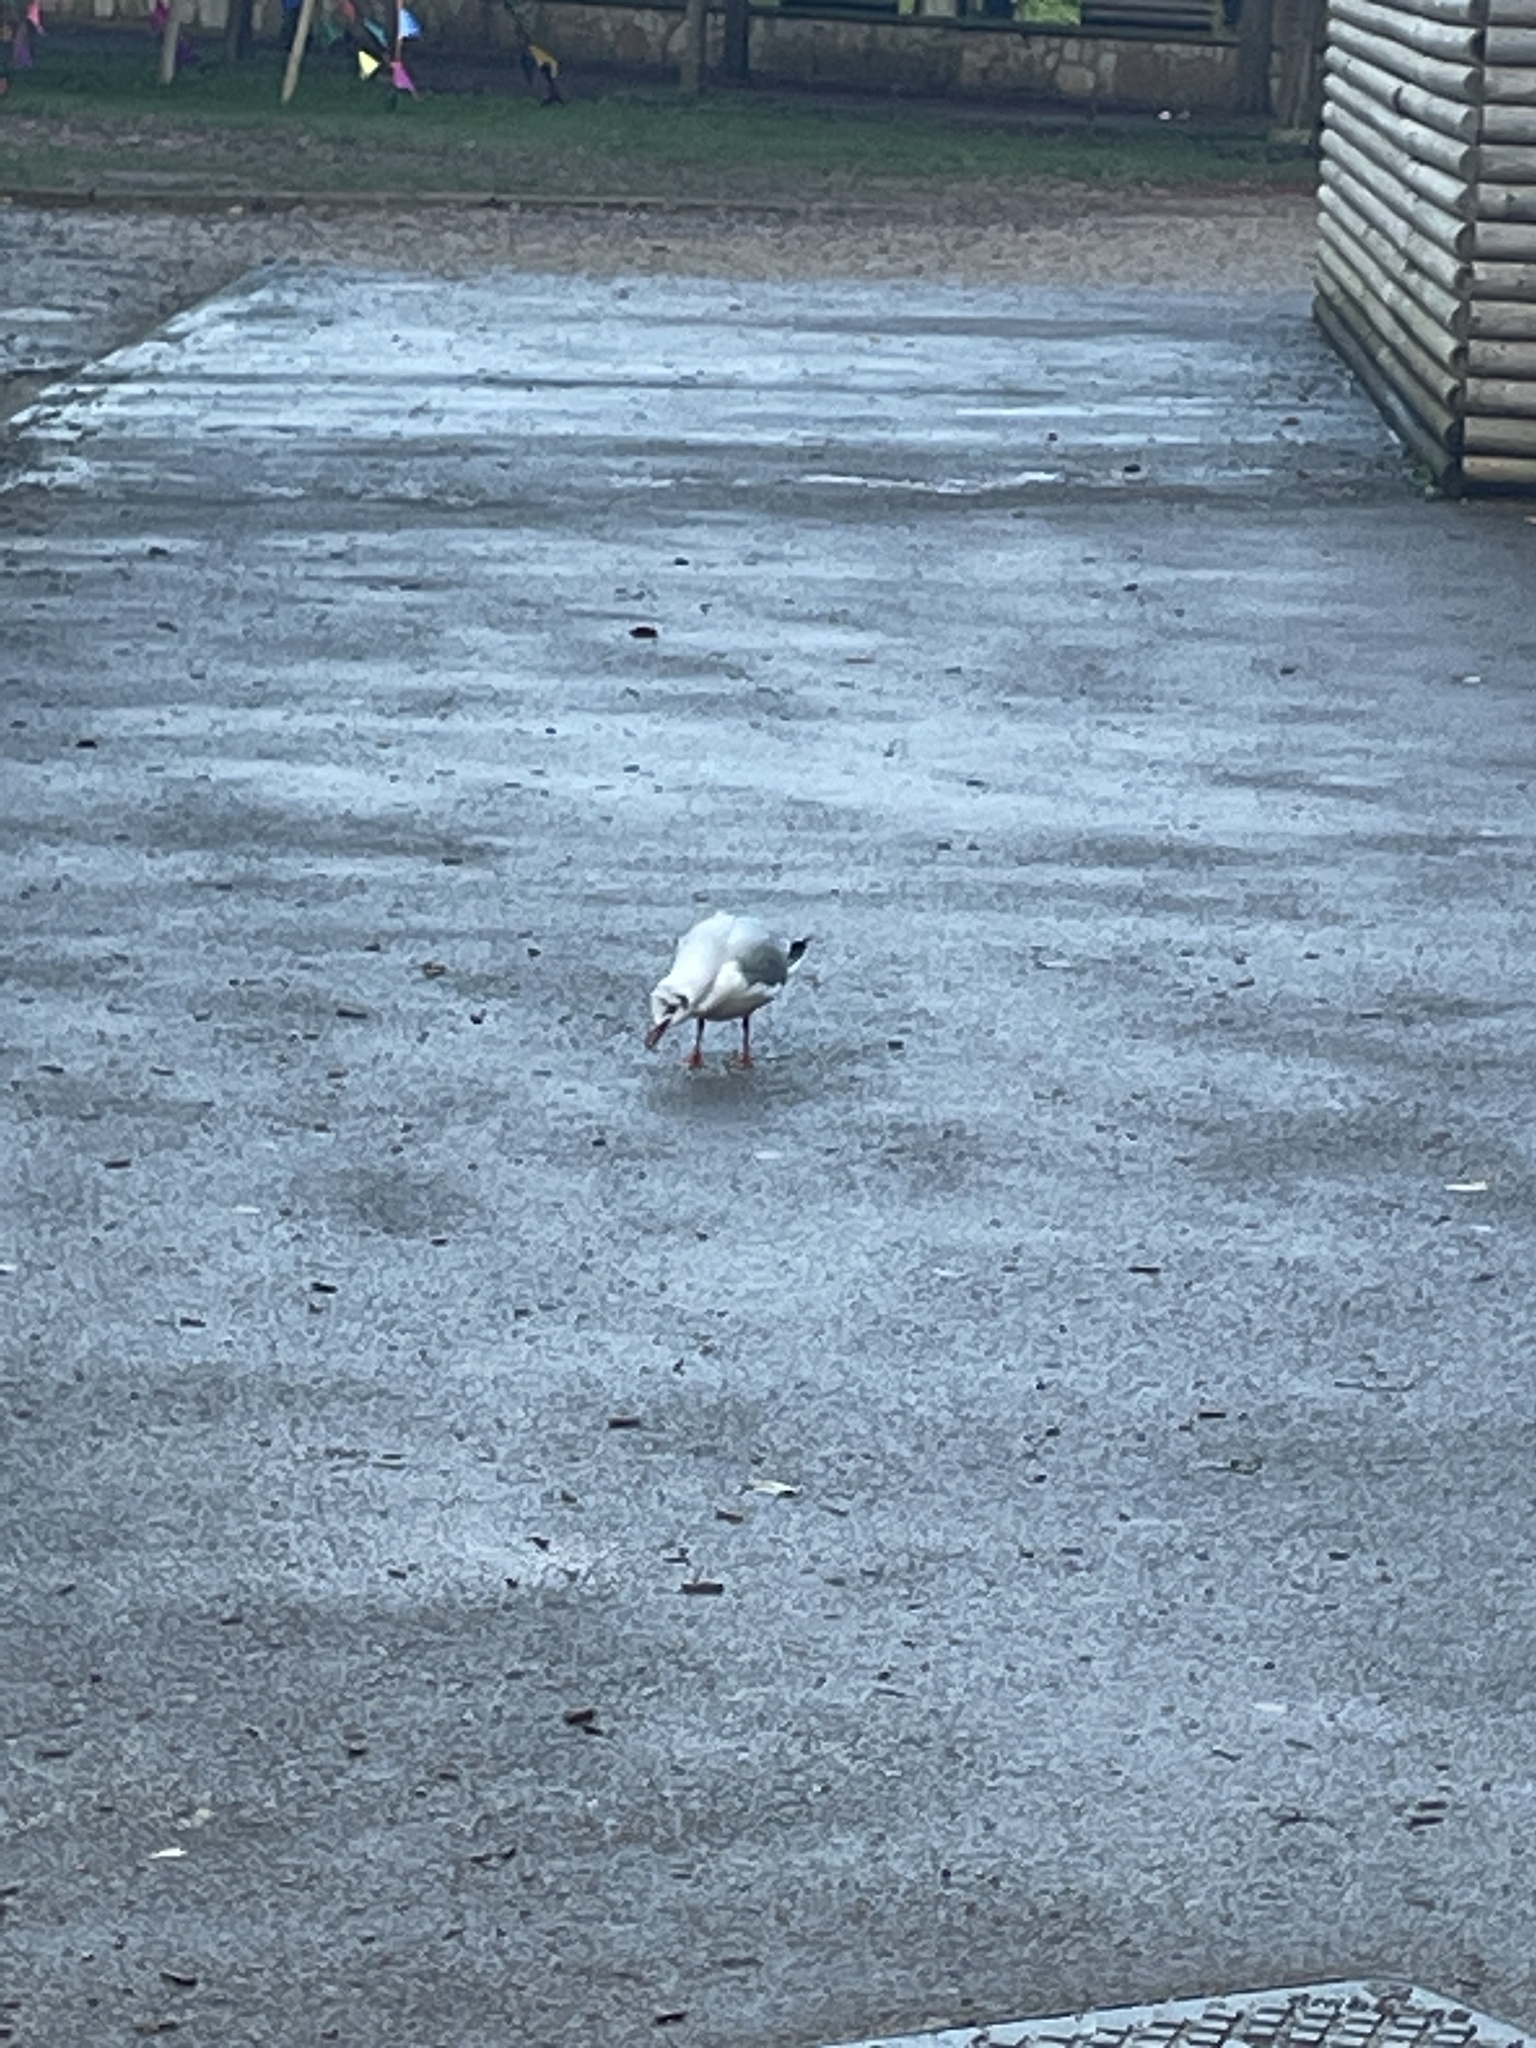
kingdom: Animalia
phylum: Chordata
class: Aves
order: Charadriiformes
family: Laridae
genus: Chroicocephalus
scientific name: Chroicocephalus ridibundus
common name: Black-headed gull
